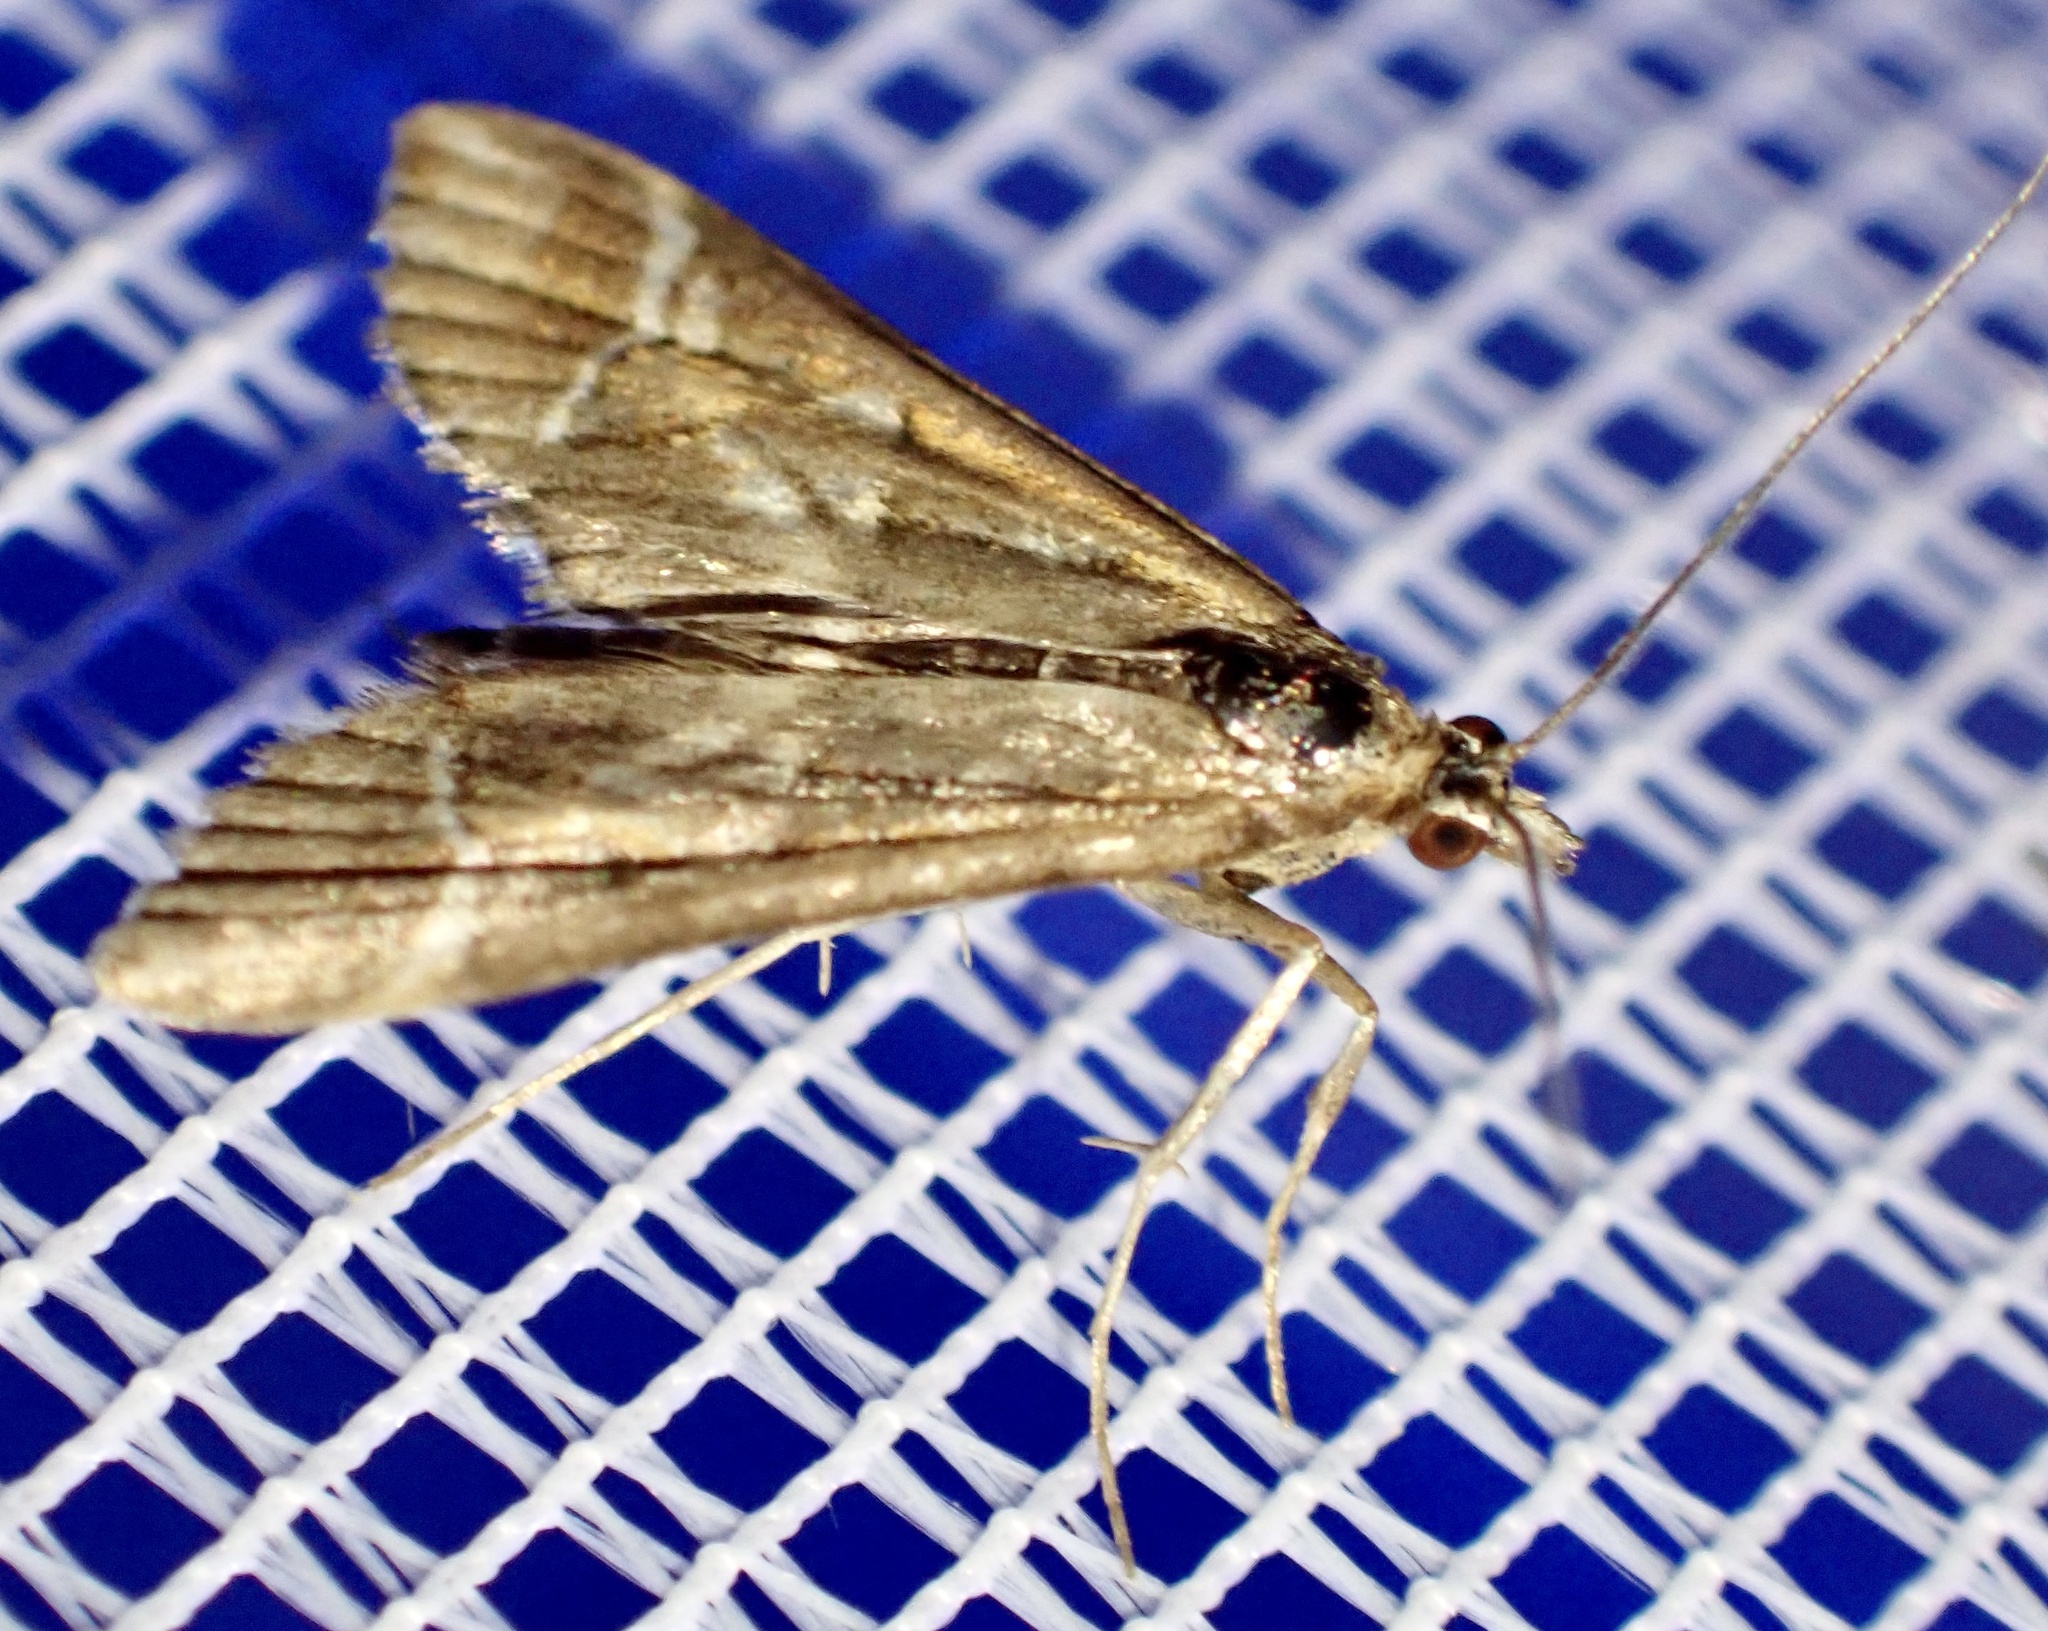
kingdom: Animalia
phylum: Arthropoda
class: Insecta
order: Lepidoptera
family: Crambidae
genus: Diasemia
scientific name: Diasemia reticularis
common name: Lettered china-mark
